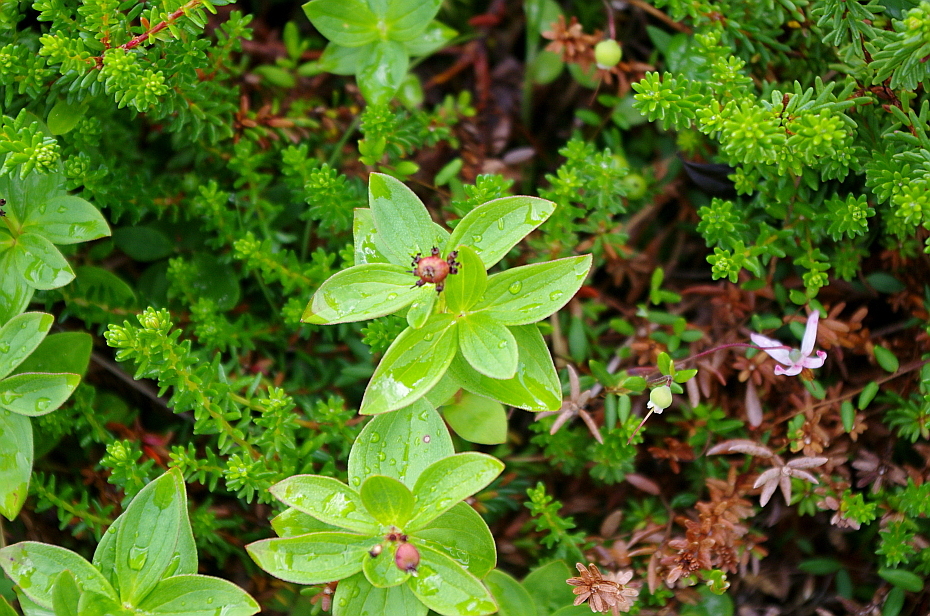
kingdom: Plantae
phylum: Tracheophyta
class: Magnoliopsida
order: Cornales
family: Cornaceae
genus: Cornus
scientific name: Cornus suecica
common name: Dwarf cornel
